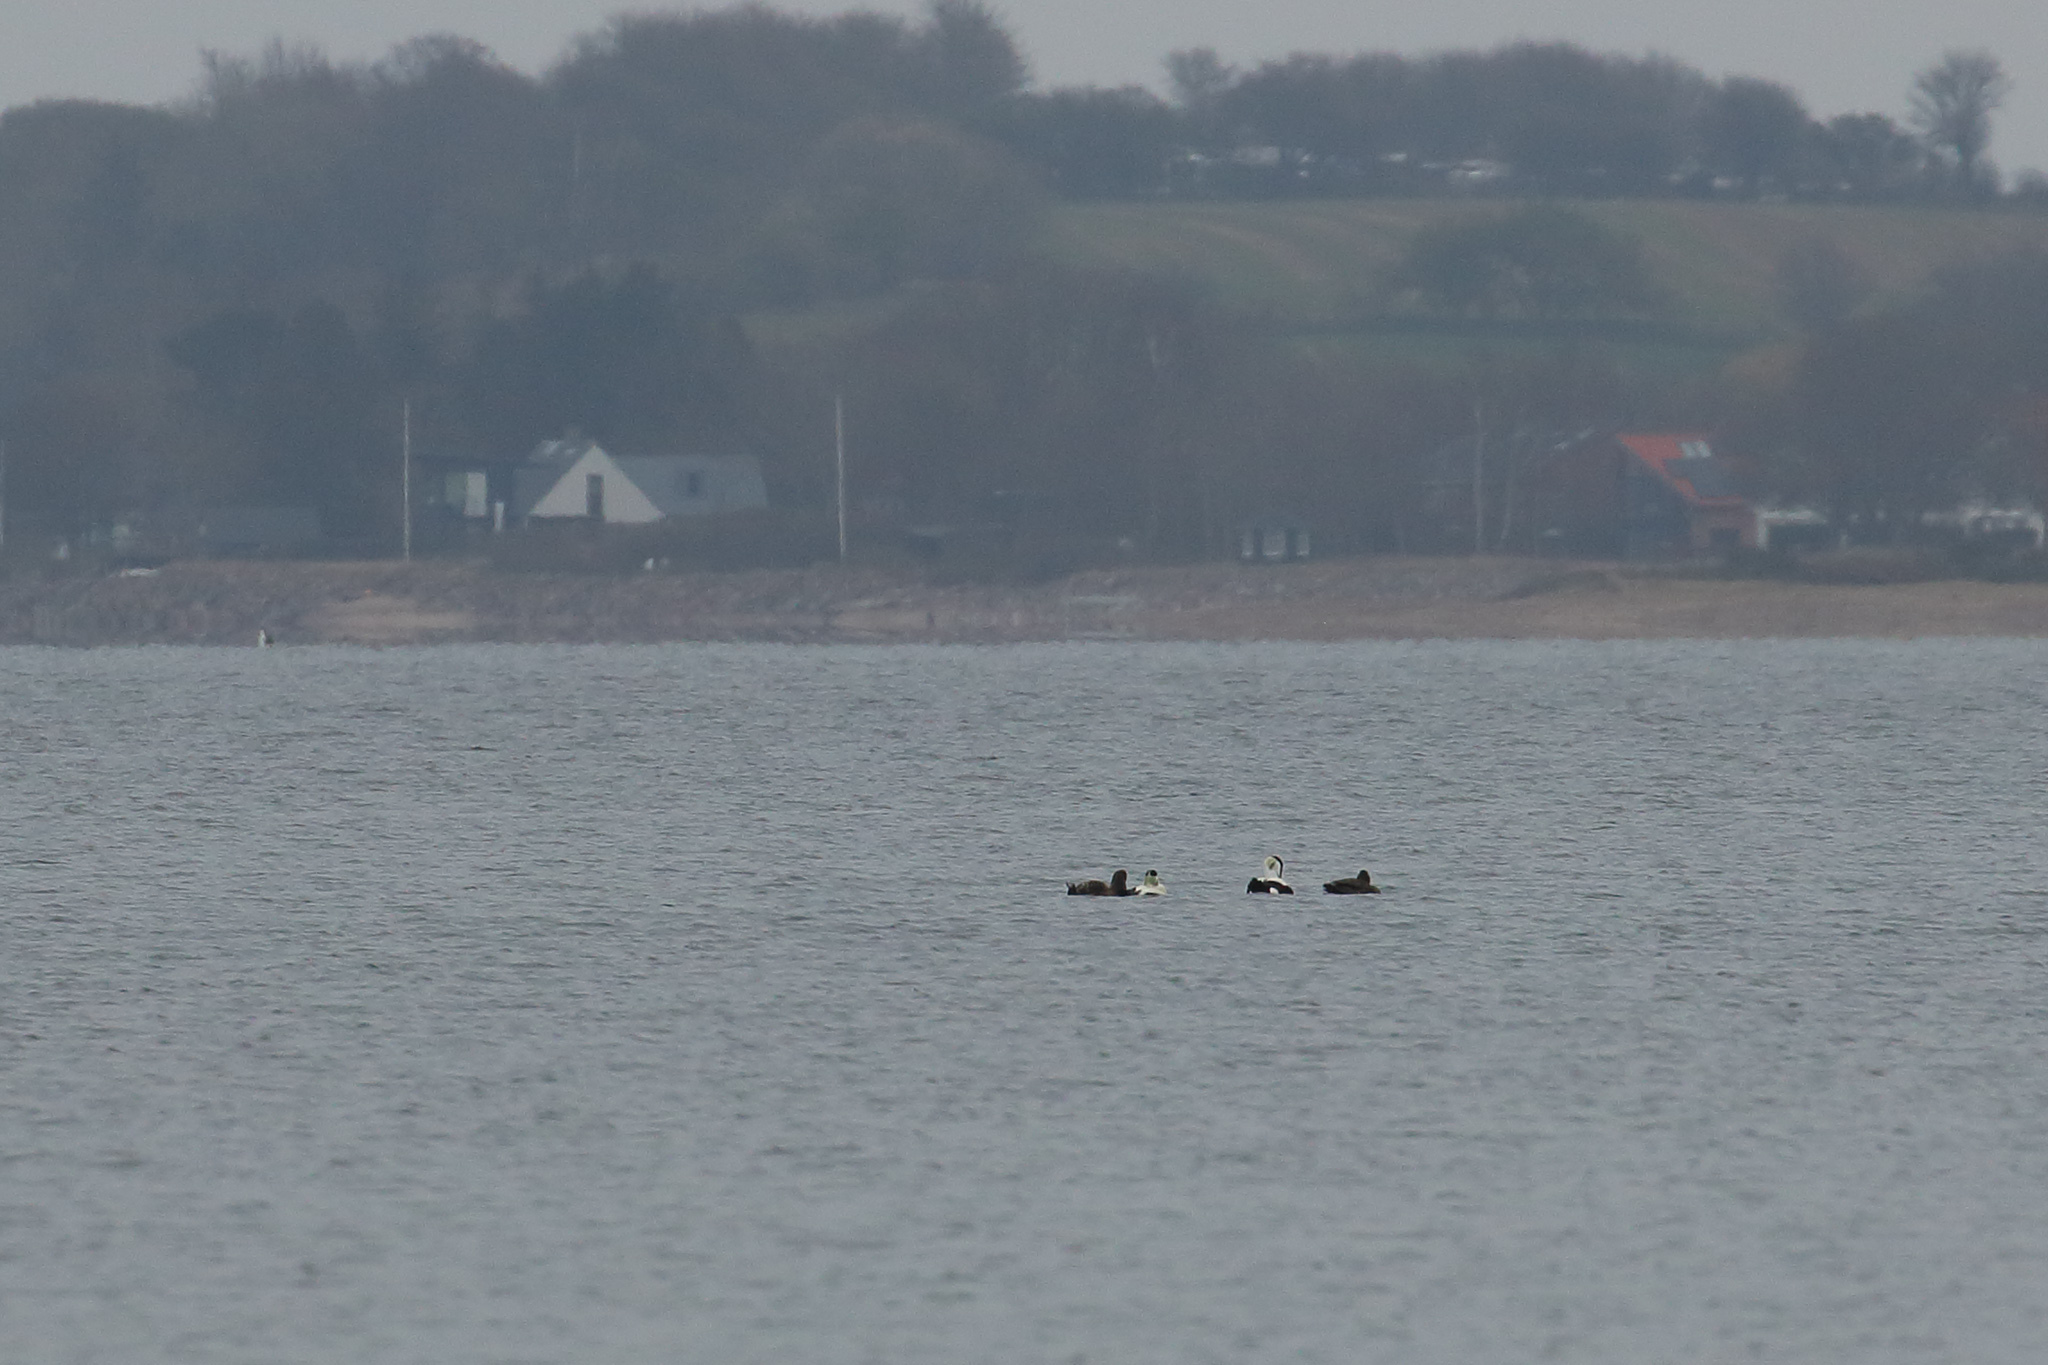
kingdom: Animalia
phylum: Chordata
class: Aves
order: Anseriformes
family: Anatidae
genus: Somateria
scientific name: Somateria mollissima
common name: Common eider
